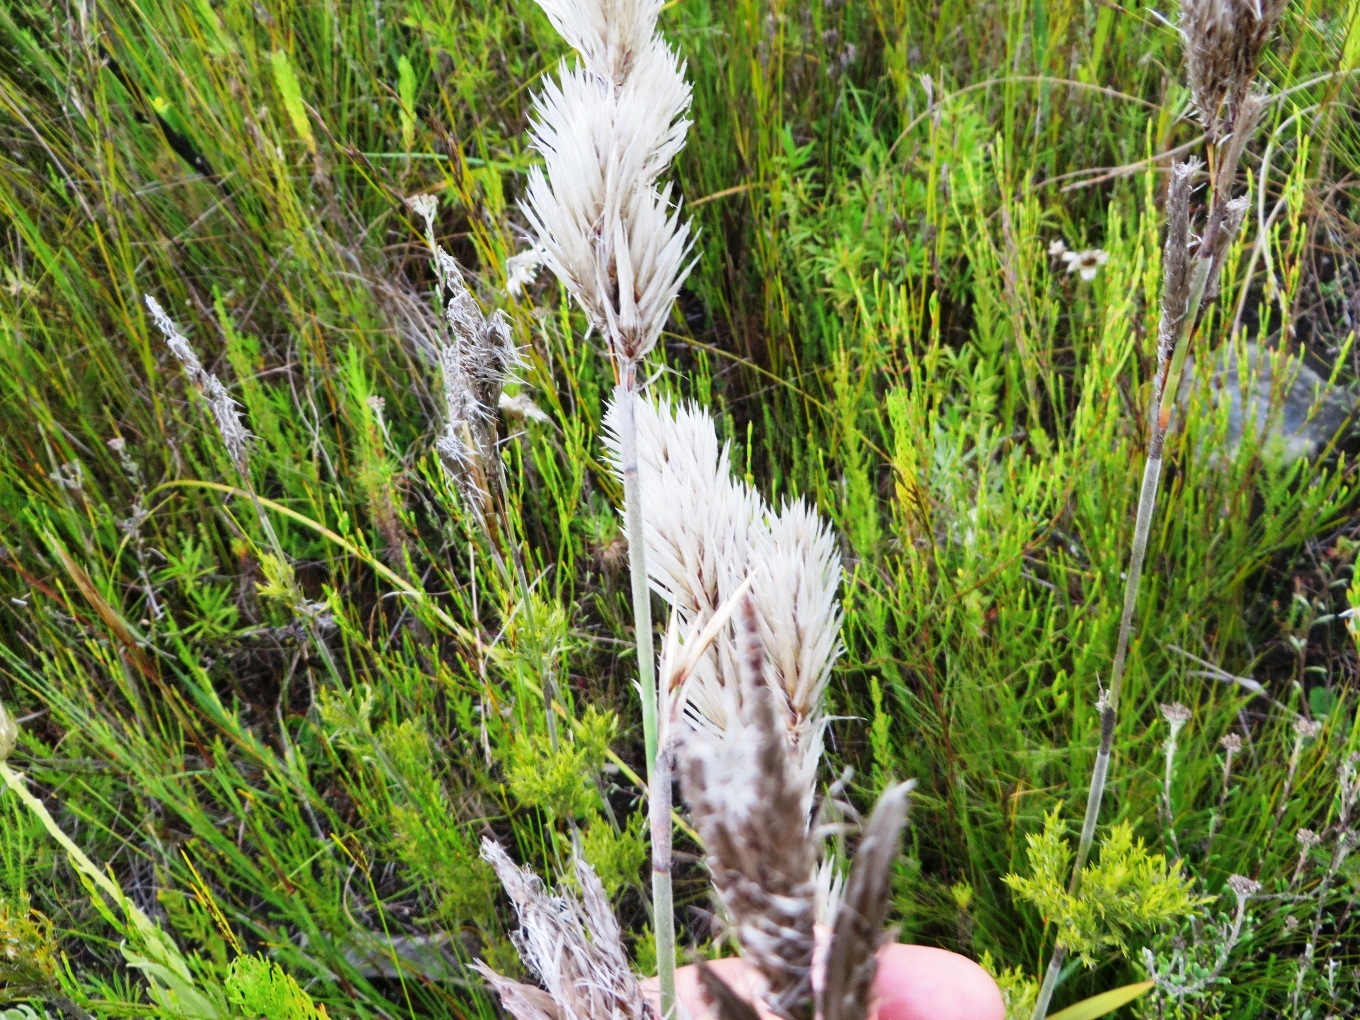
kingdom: Plantae
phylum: Tracheophyta
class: Liliopsida
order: Poales
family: Restionaceae
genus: Thamnochortus
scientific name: Thamnochortus cinereus
